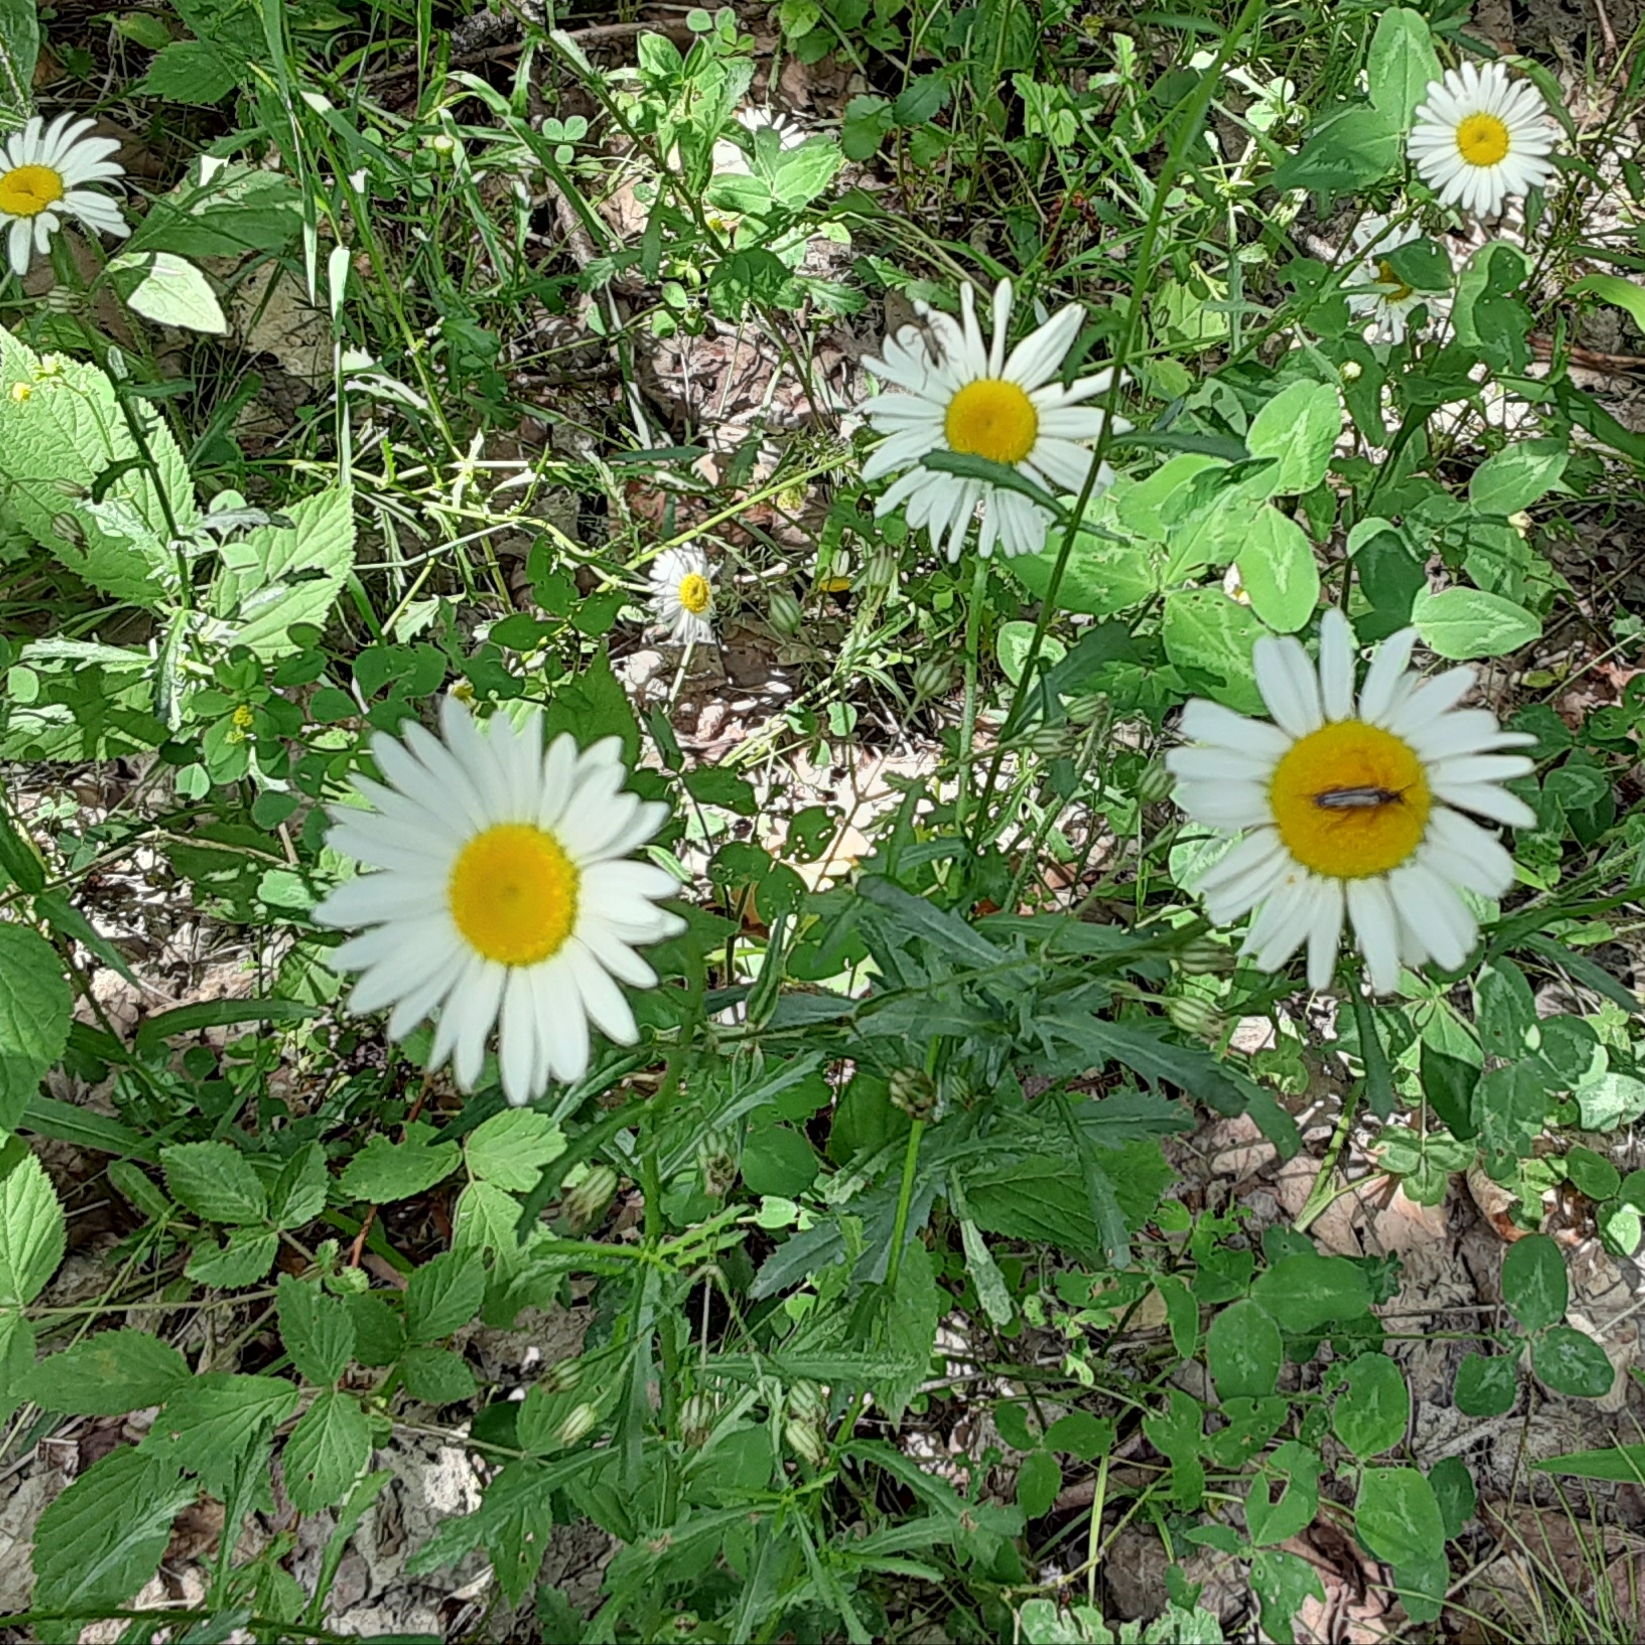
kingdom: Plantae
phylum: Tracheophyta
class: Magnoliopsida
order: Asterales
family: Asteraceae
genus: Leucanthemum
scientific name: Leucanthemum vulgare
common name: Oxeye daisy
